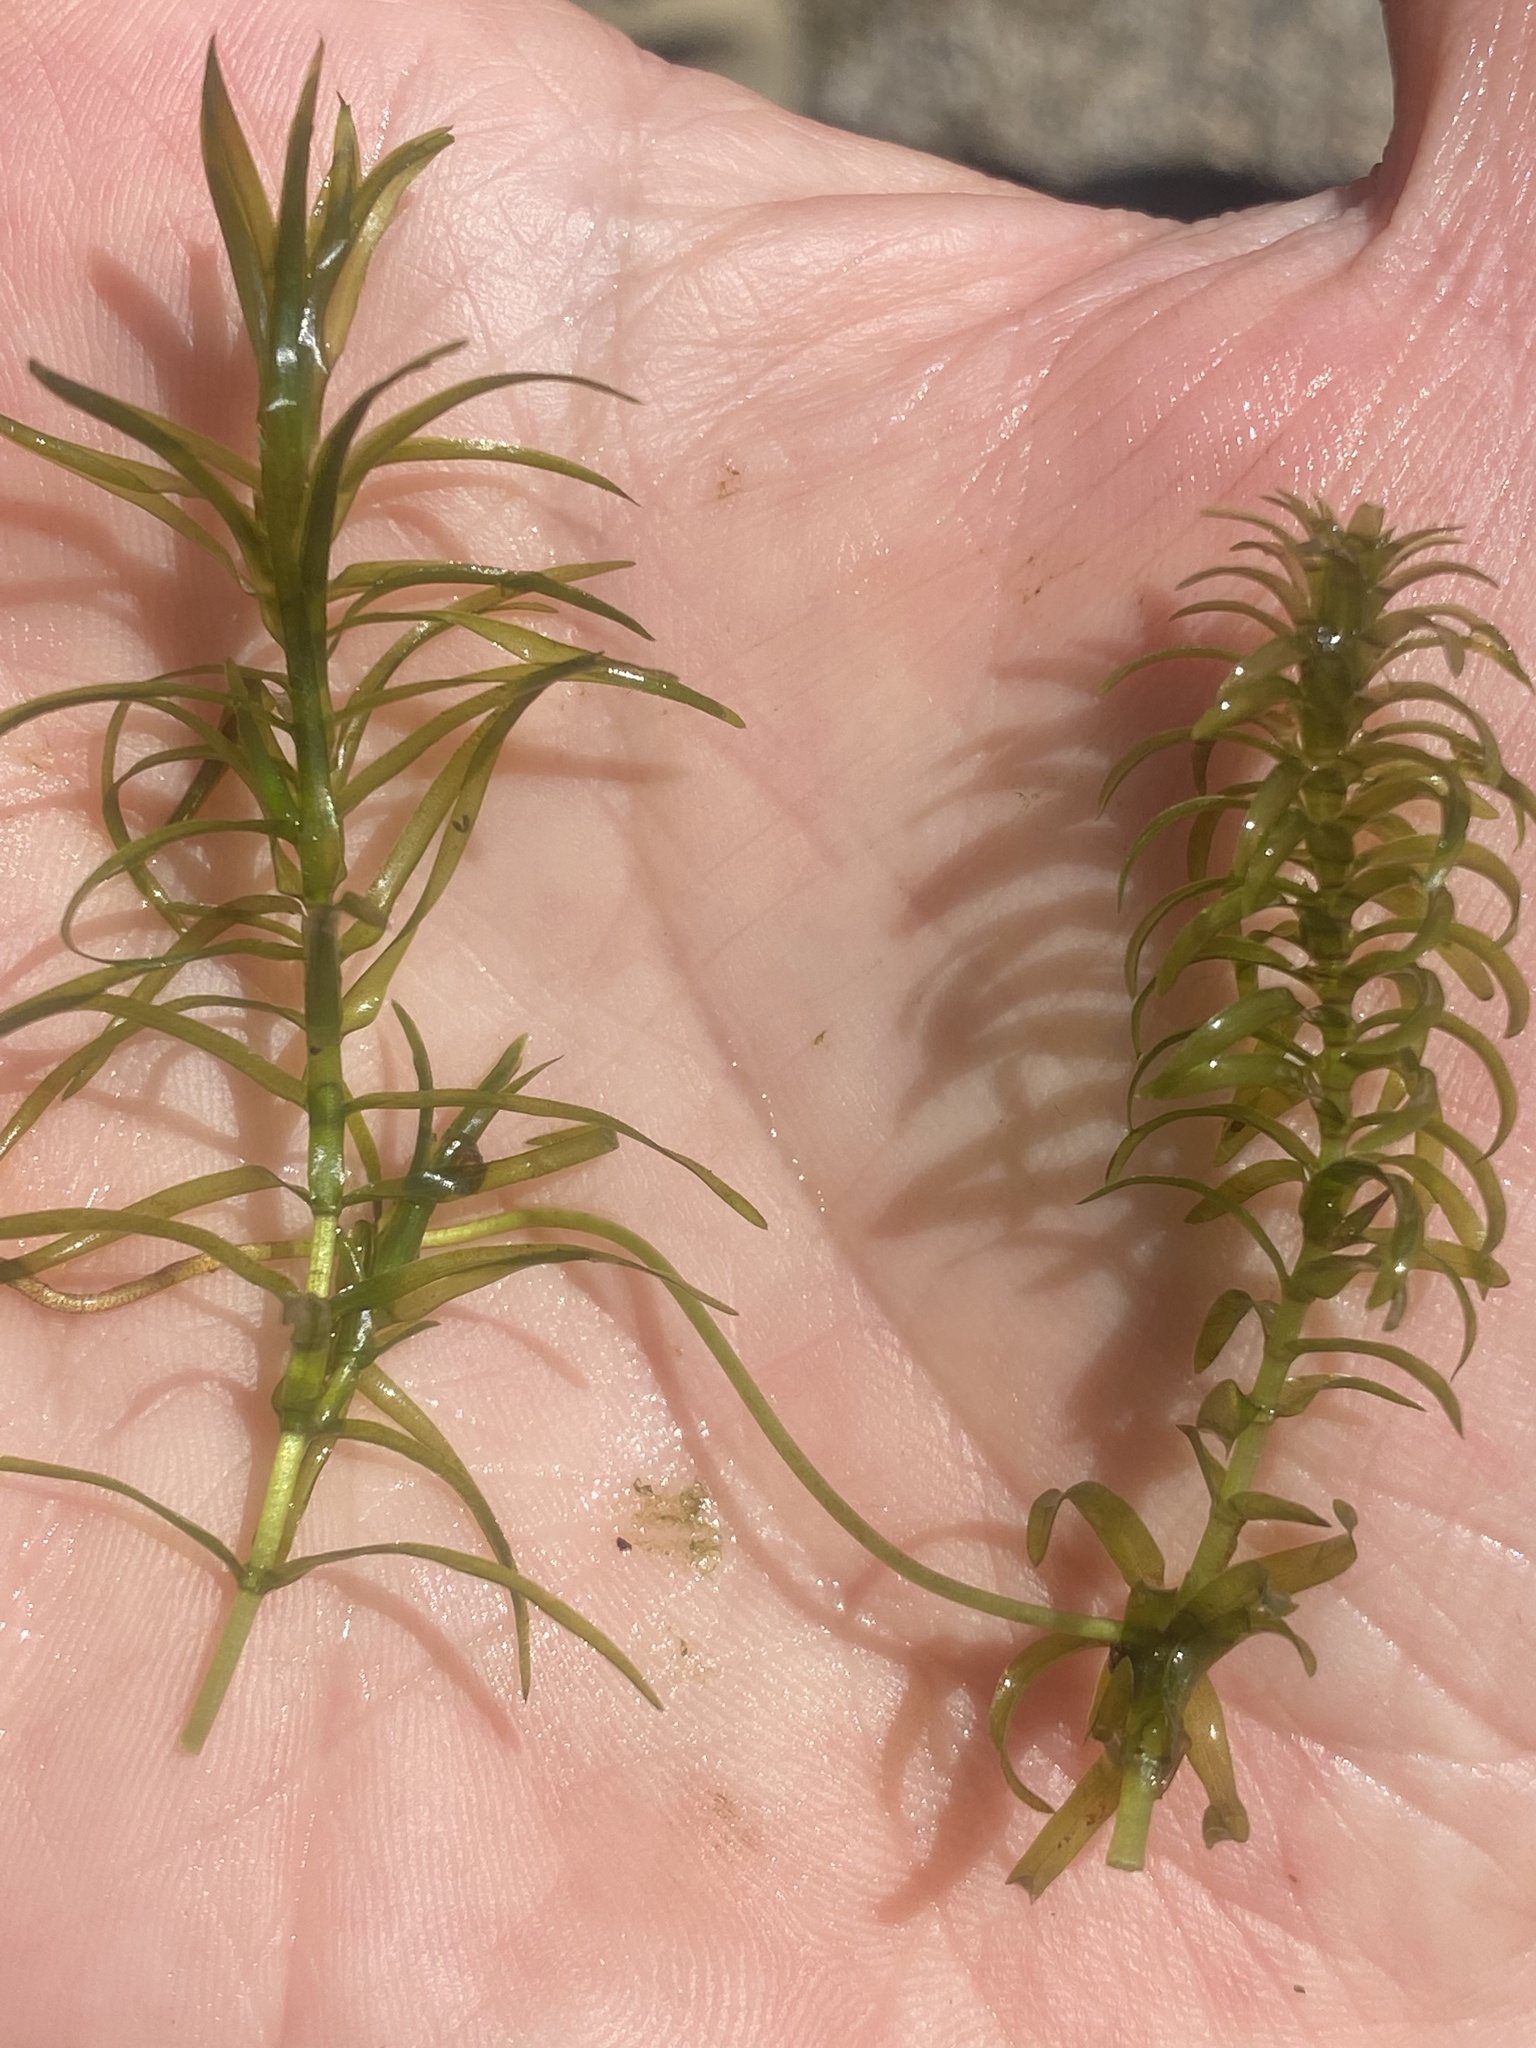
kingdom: Plantae
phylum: Tracheophyta
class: Liliopsida
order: Alismatales
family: Hydrocharitaceae
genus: Elodea
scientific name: Elodea canadensis
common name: Canadian waterweed
